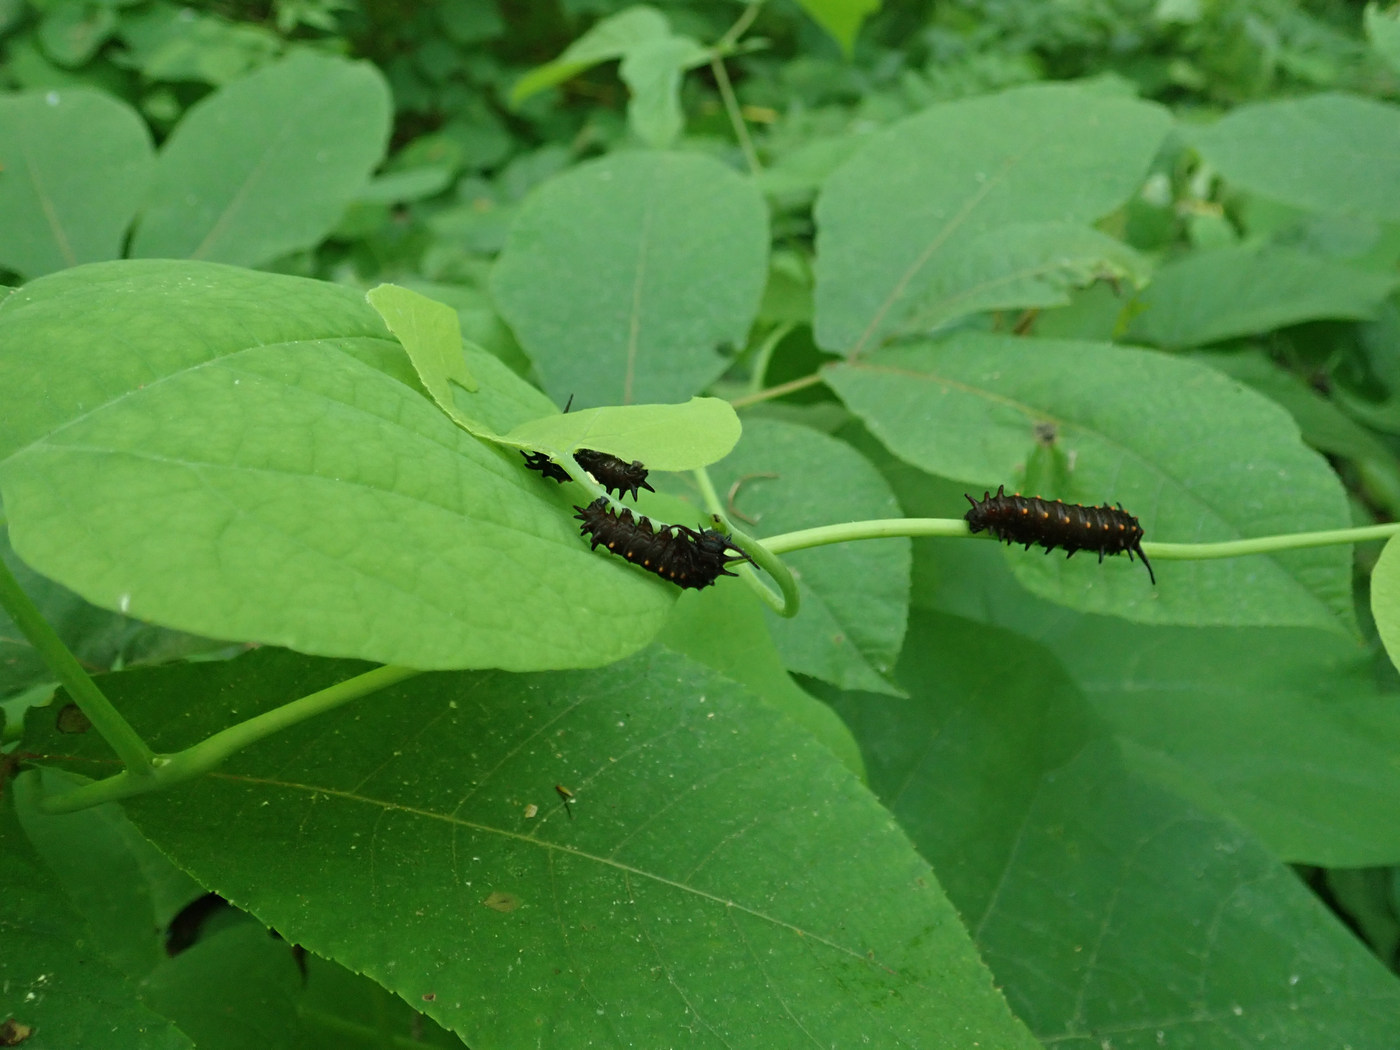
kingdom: Animalia
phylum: Arthropoda
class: Insecta
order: Lepidoptera
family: Papilionidae
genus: Battus
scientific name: Battus philenor
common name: Pipevine swallowtail
